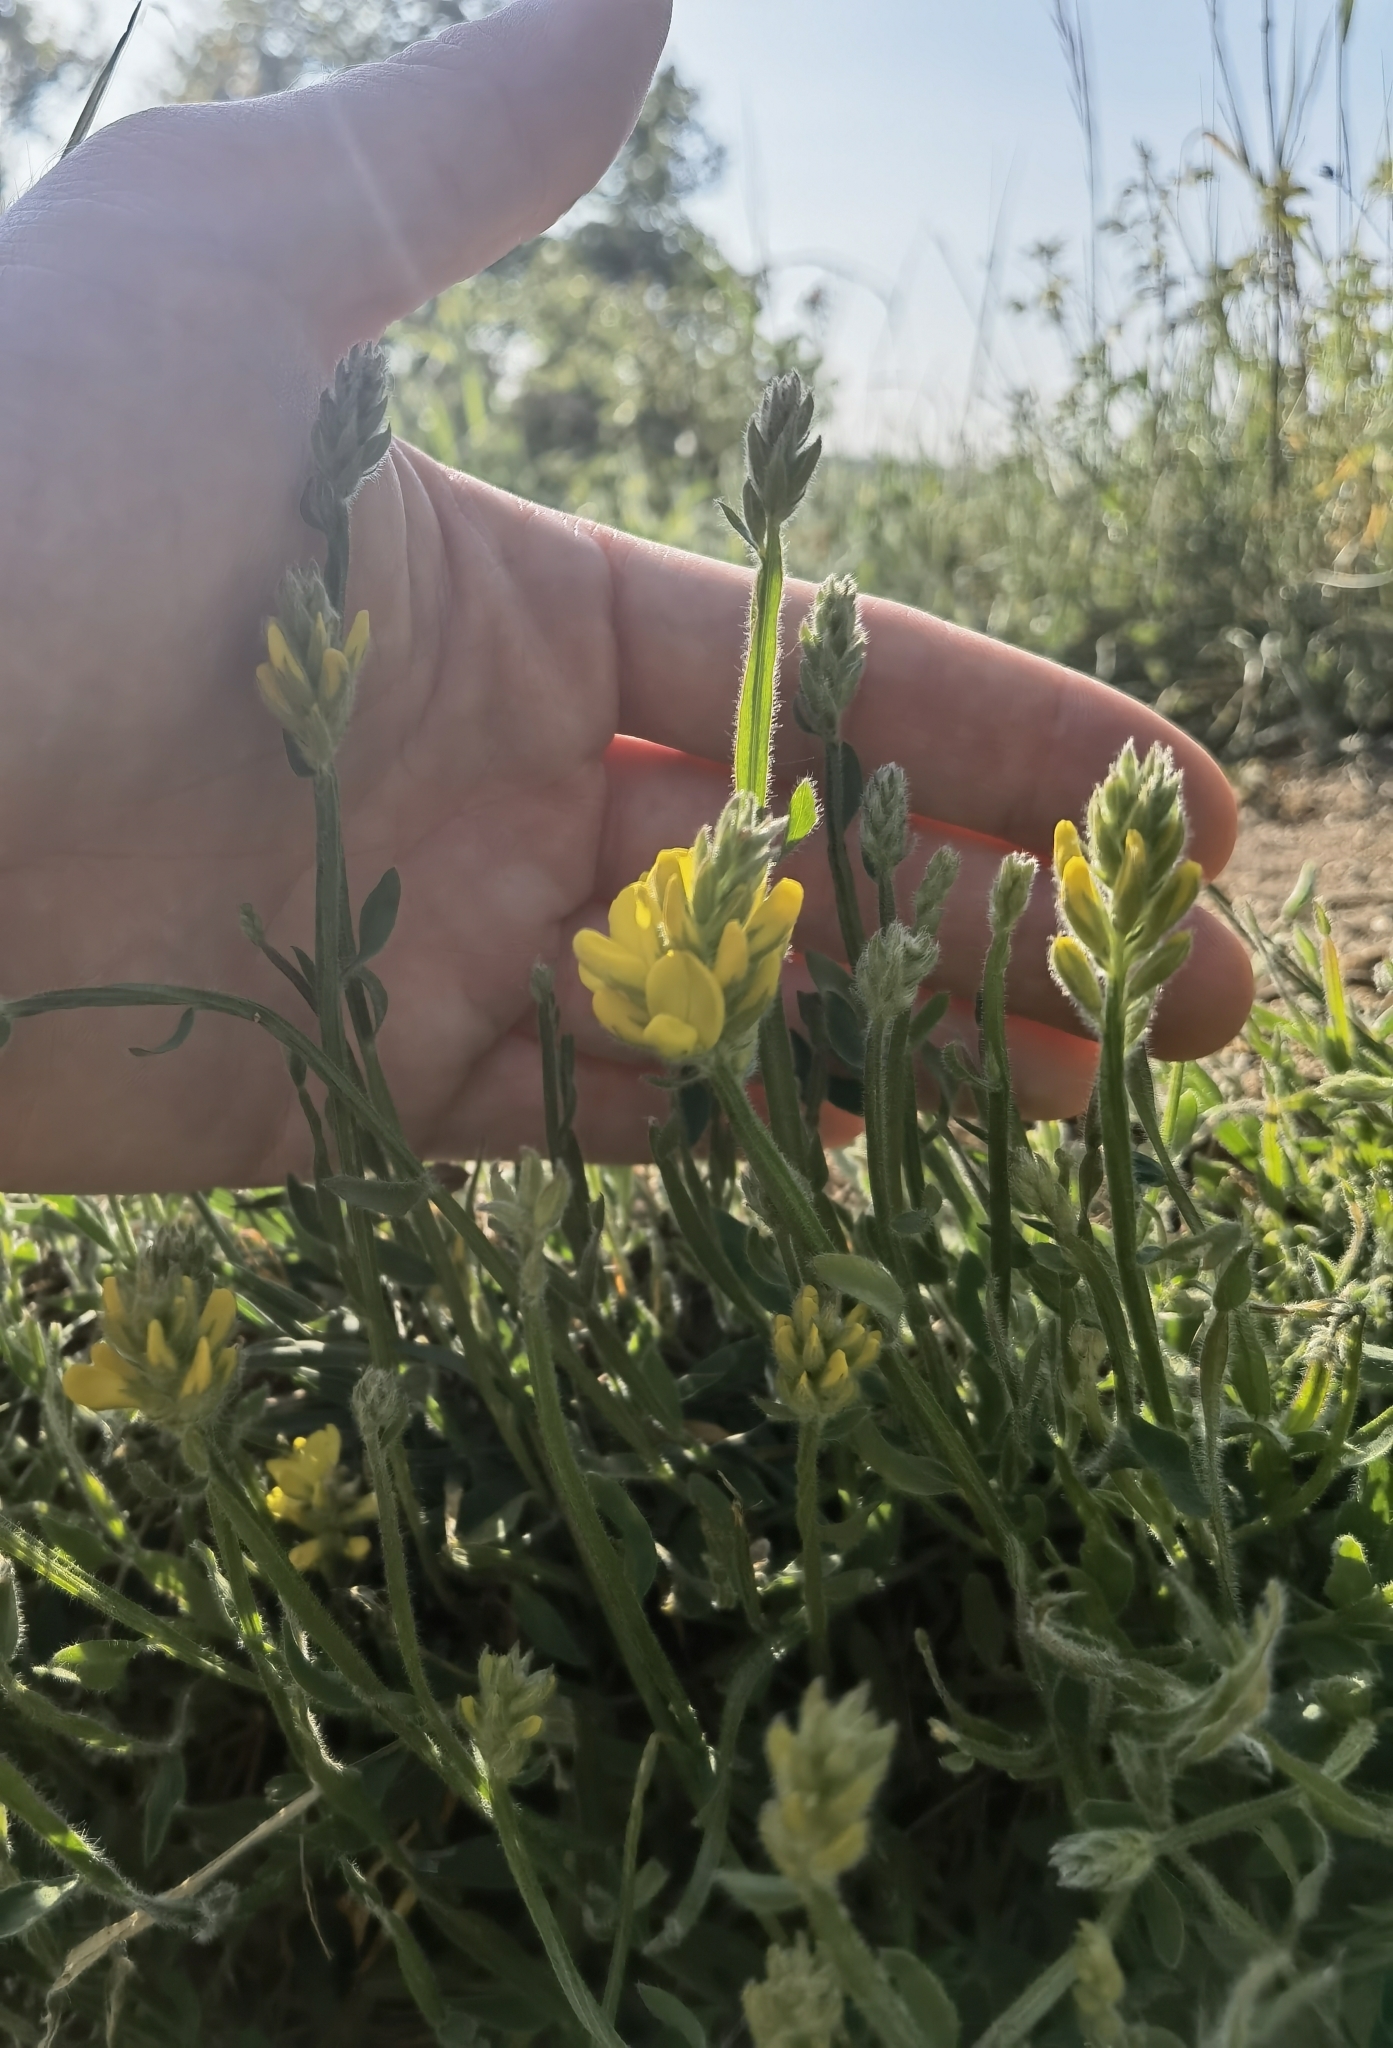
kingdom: Plantae
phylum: Tracheophyta
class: Magnoliopsida
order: Fabales
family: Fabaceae
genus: Genista
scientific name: Genista sagittalis
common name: Winged greenweed
